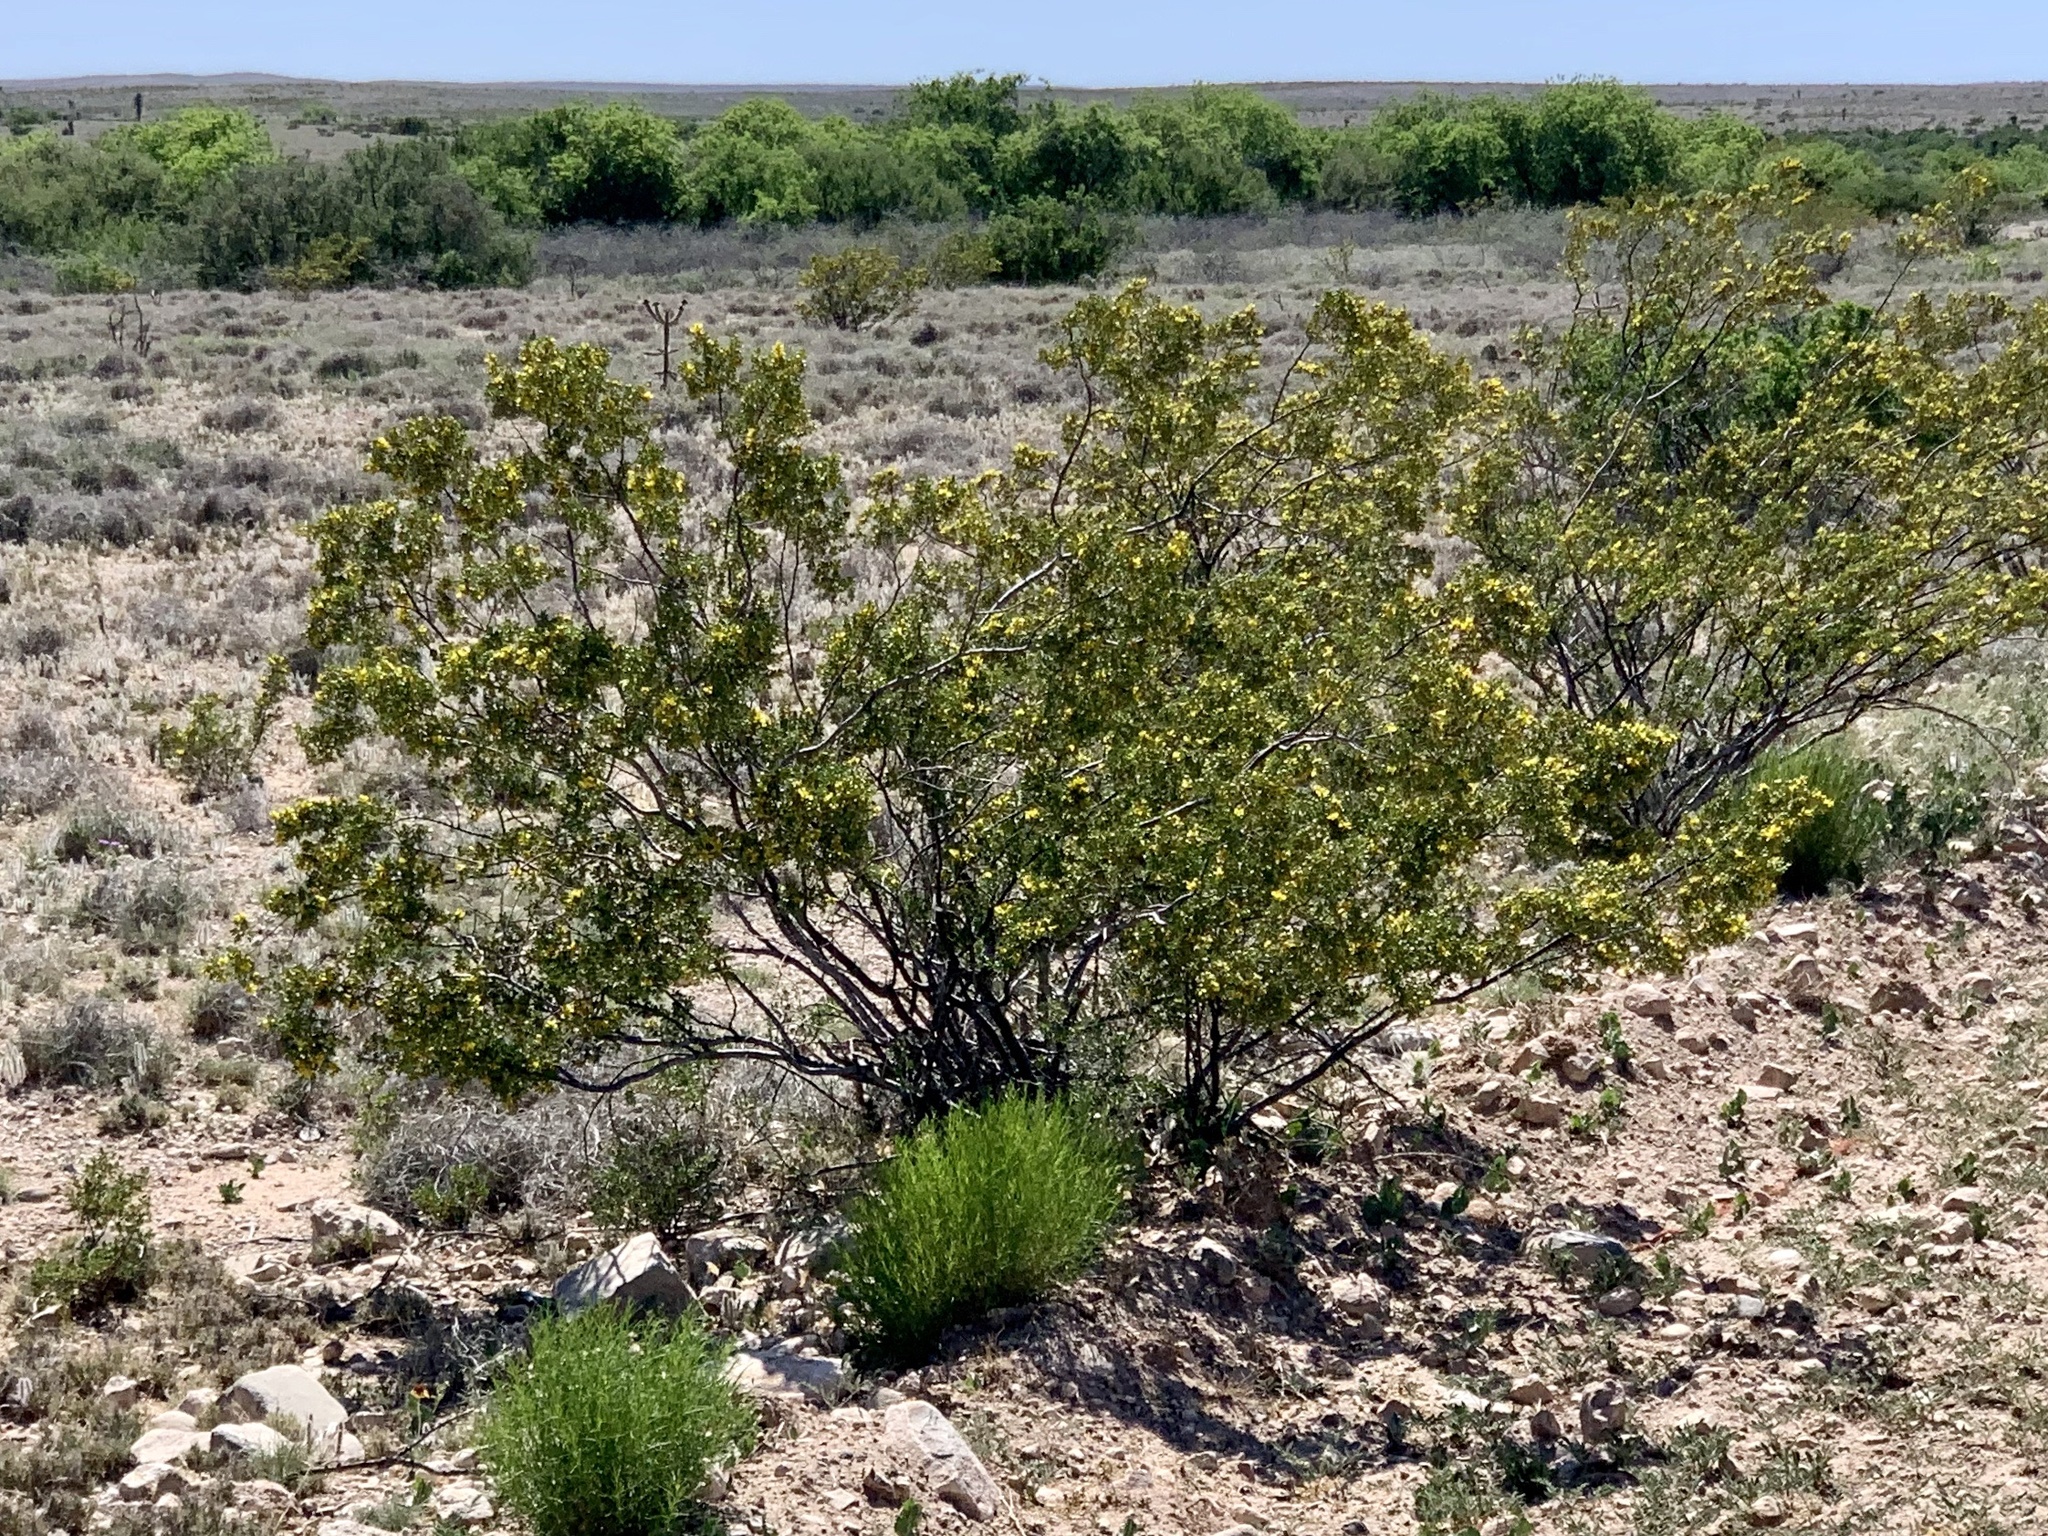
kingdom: Plantae
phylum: Tracheophyta
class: Magnoliopsida
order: Zygophyllales
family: Zygophyllaceae
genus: Larrea
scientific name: Larrea tridentata
